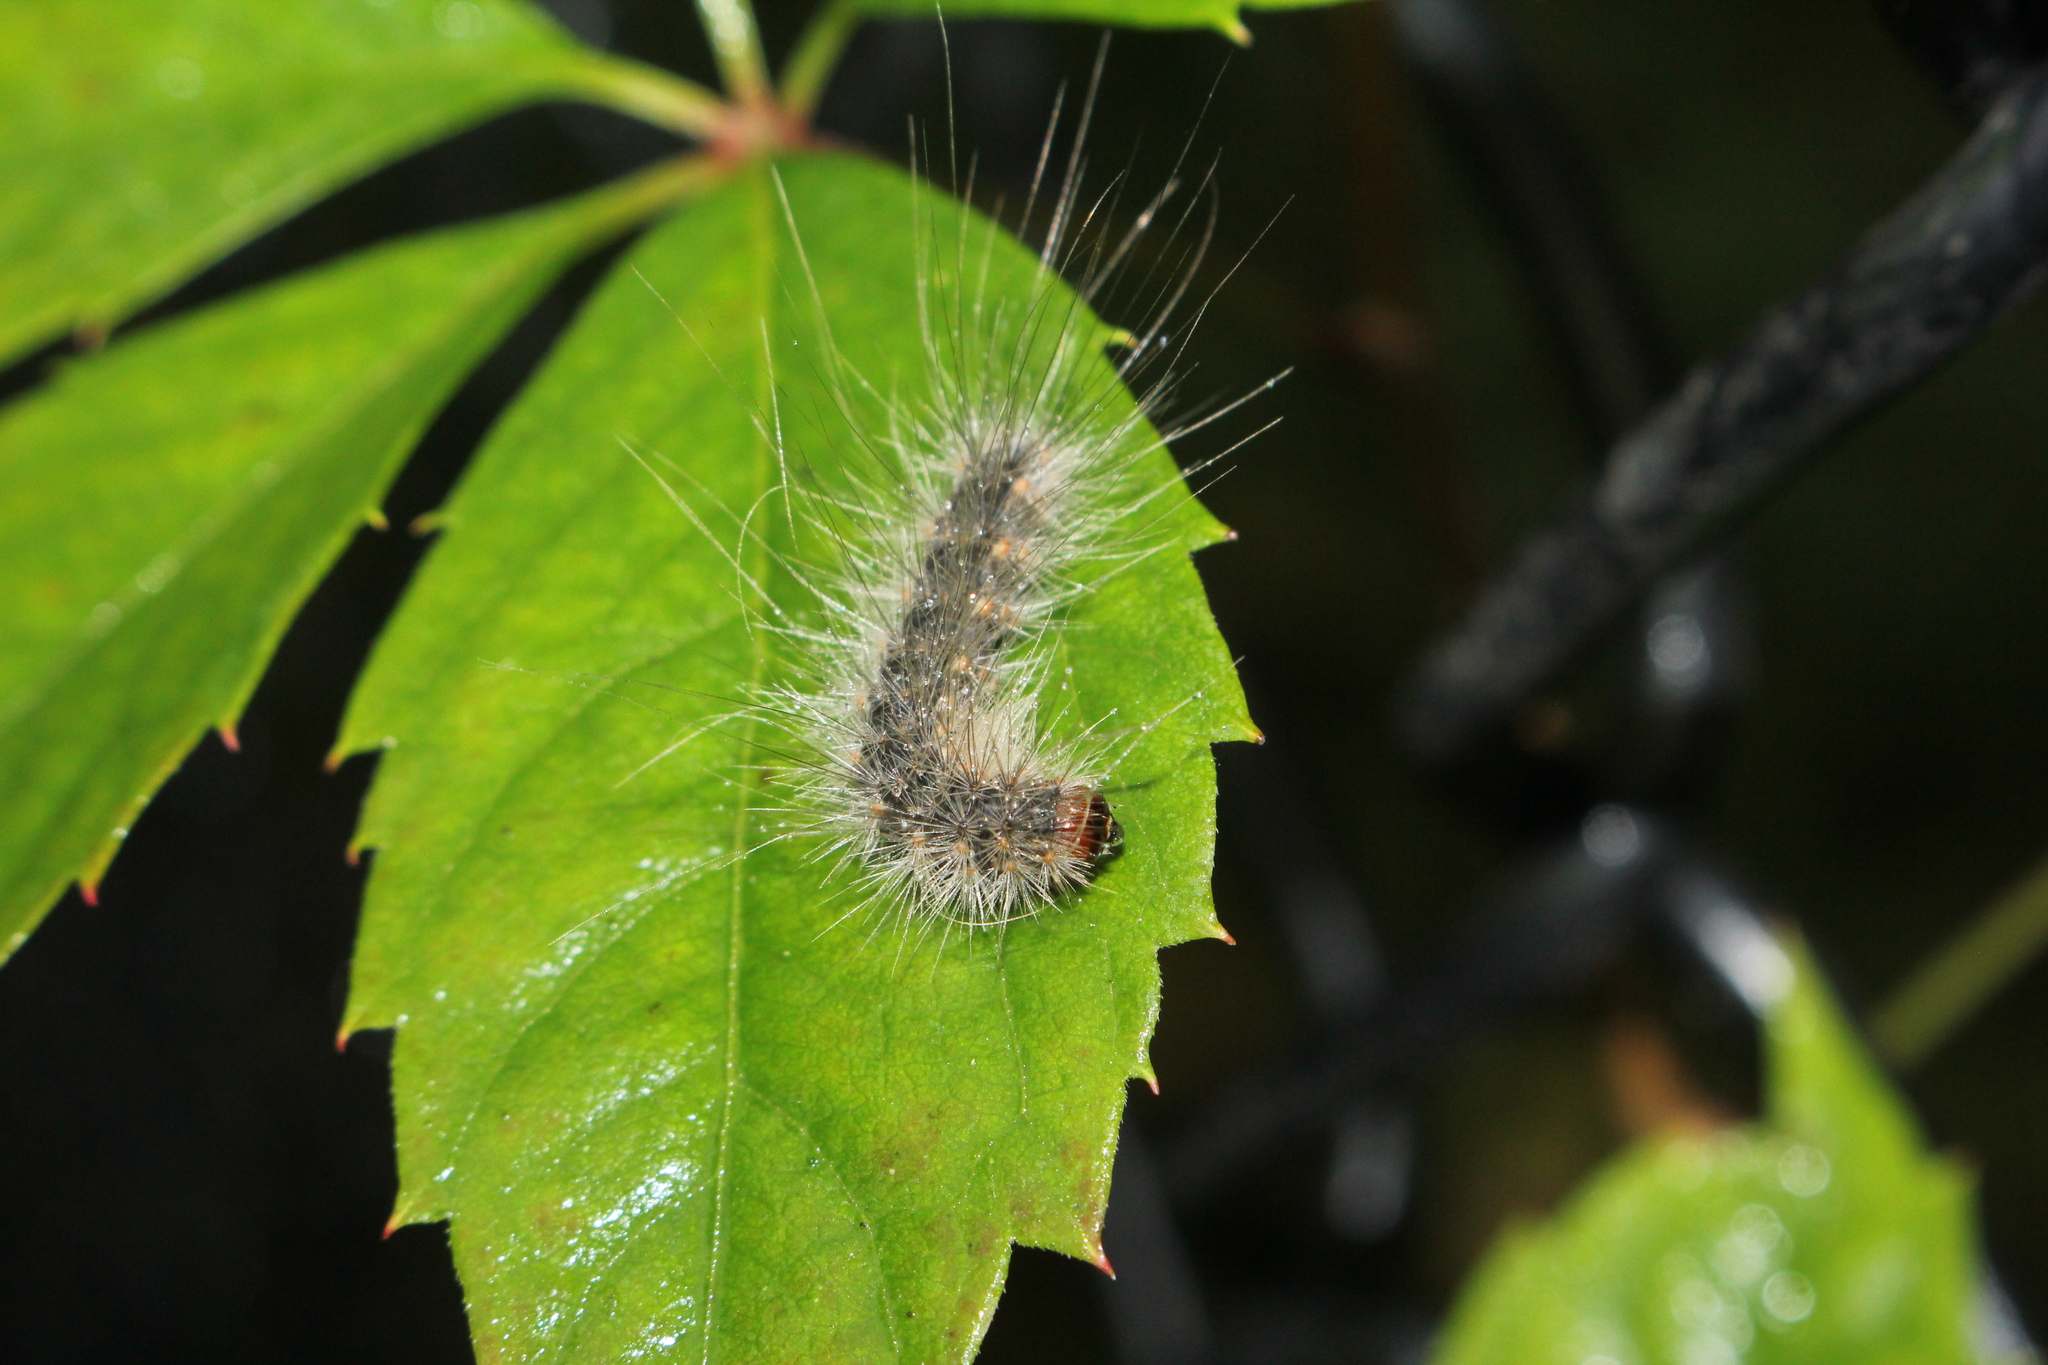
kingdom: Animalia
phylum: Arthropoda
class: Insecta
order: Lepidoptera
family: Erebidae
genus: Hyphantria
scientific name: Hyphantria cunea
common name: American white moth
